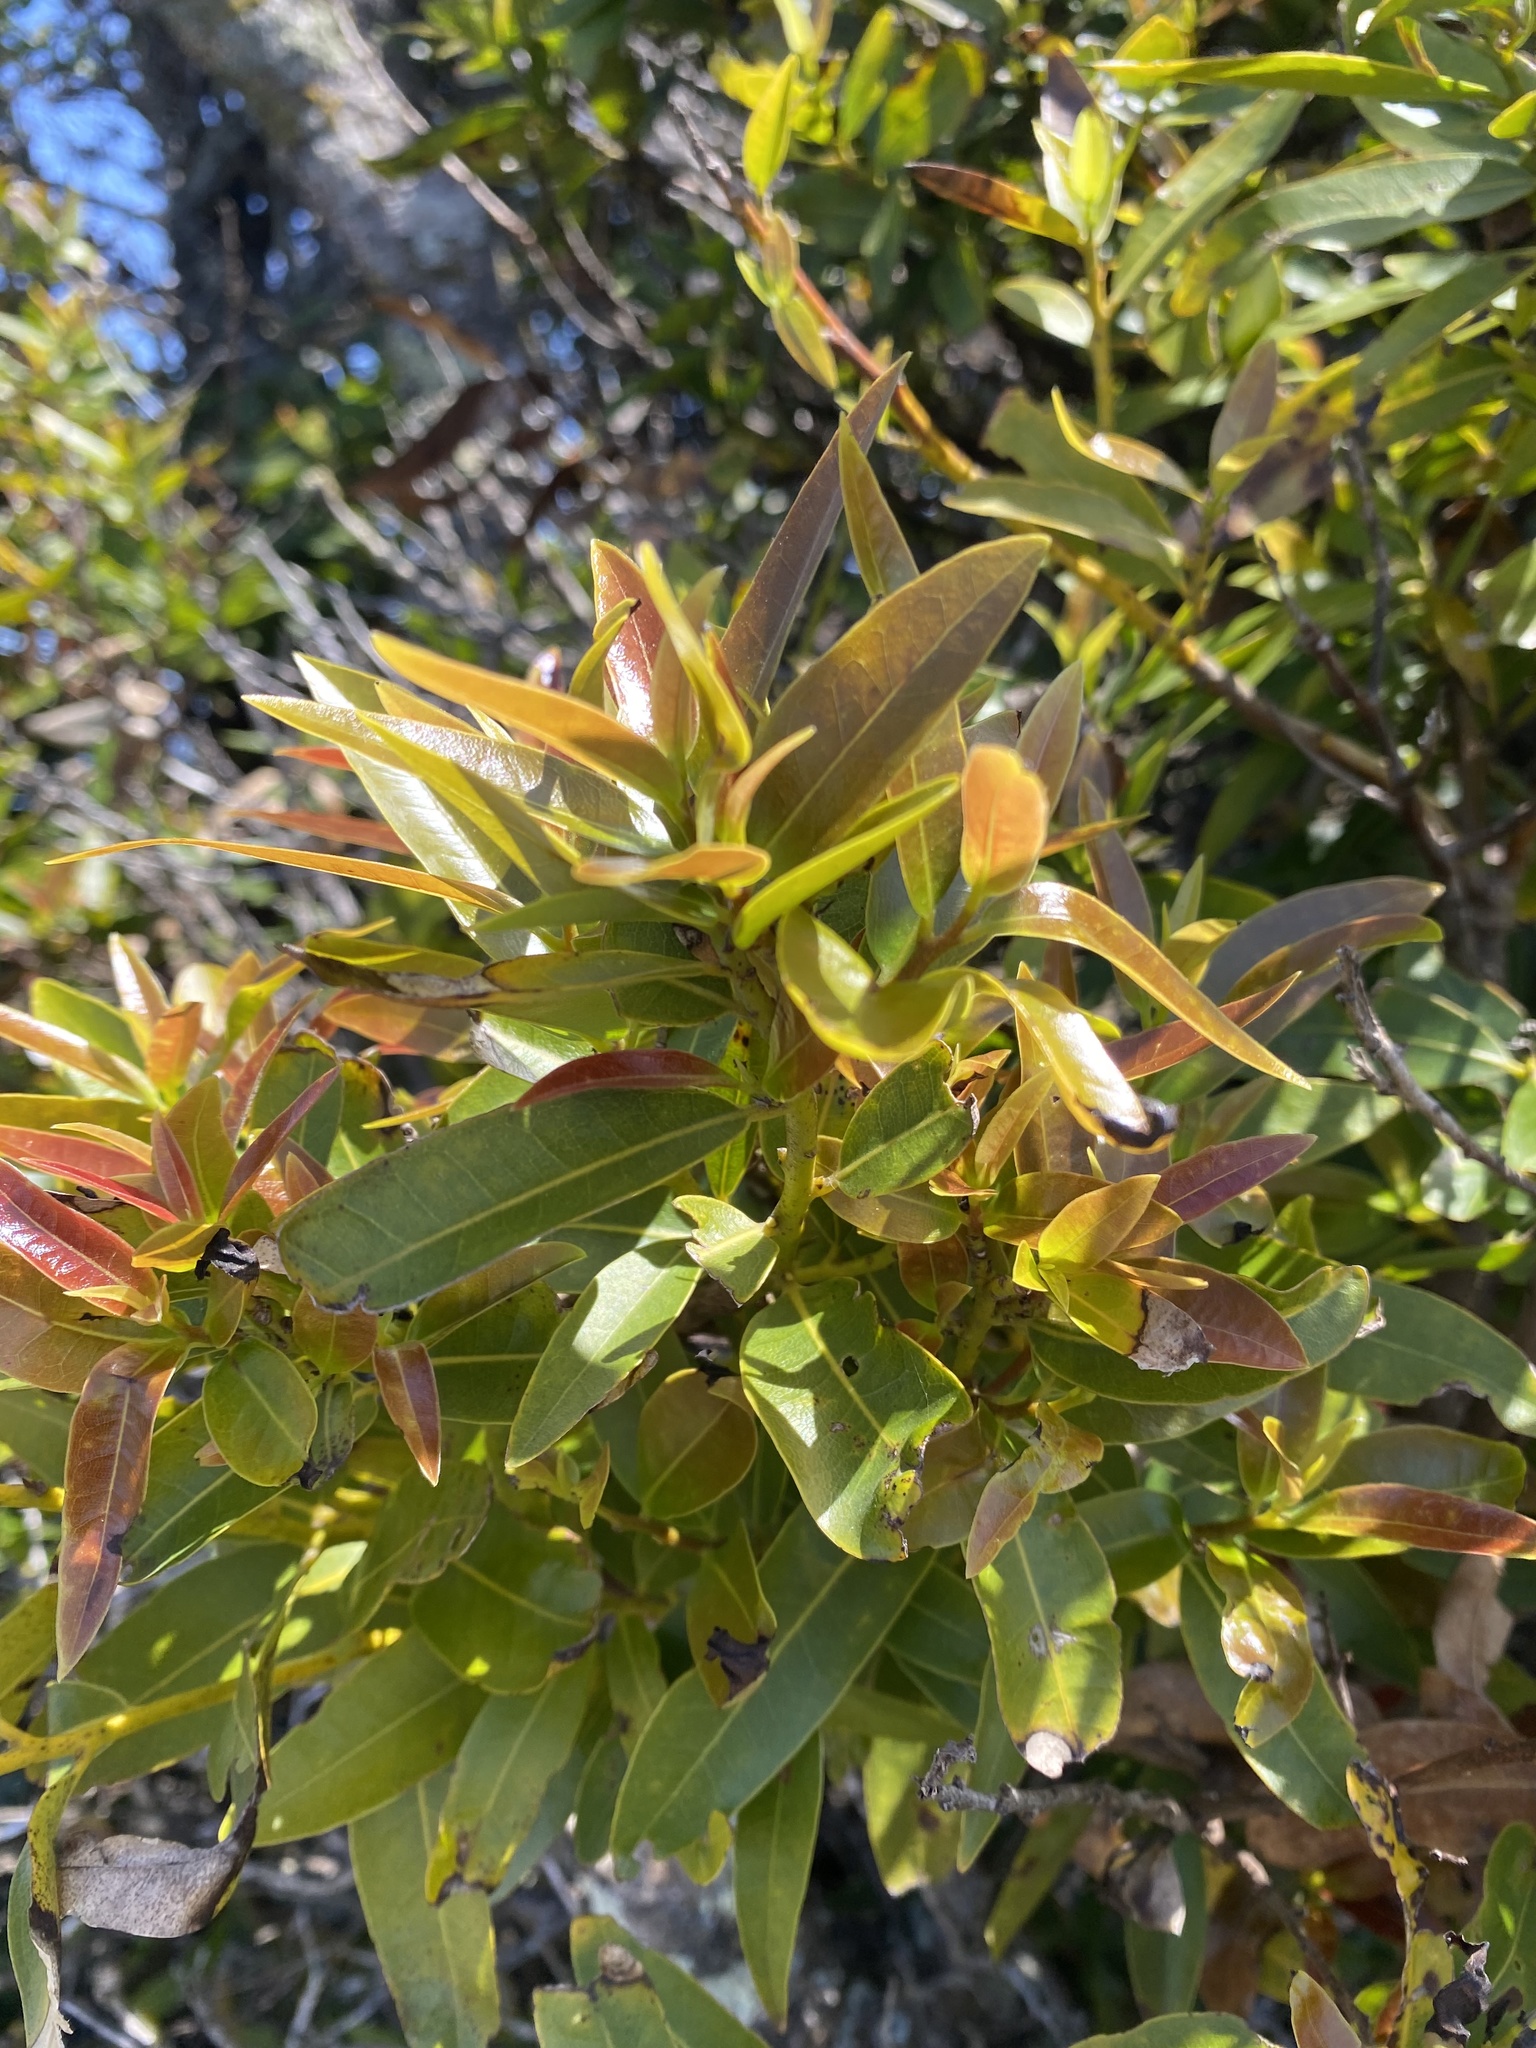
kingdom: Plantae
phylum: Tracheophyta
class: Magnoliopsida
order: Laurales
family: Lauraceae
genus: Umbellularia
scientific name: Umbellularia californica
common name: California bay
